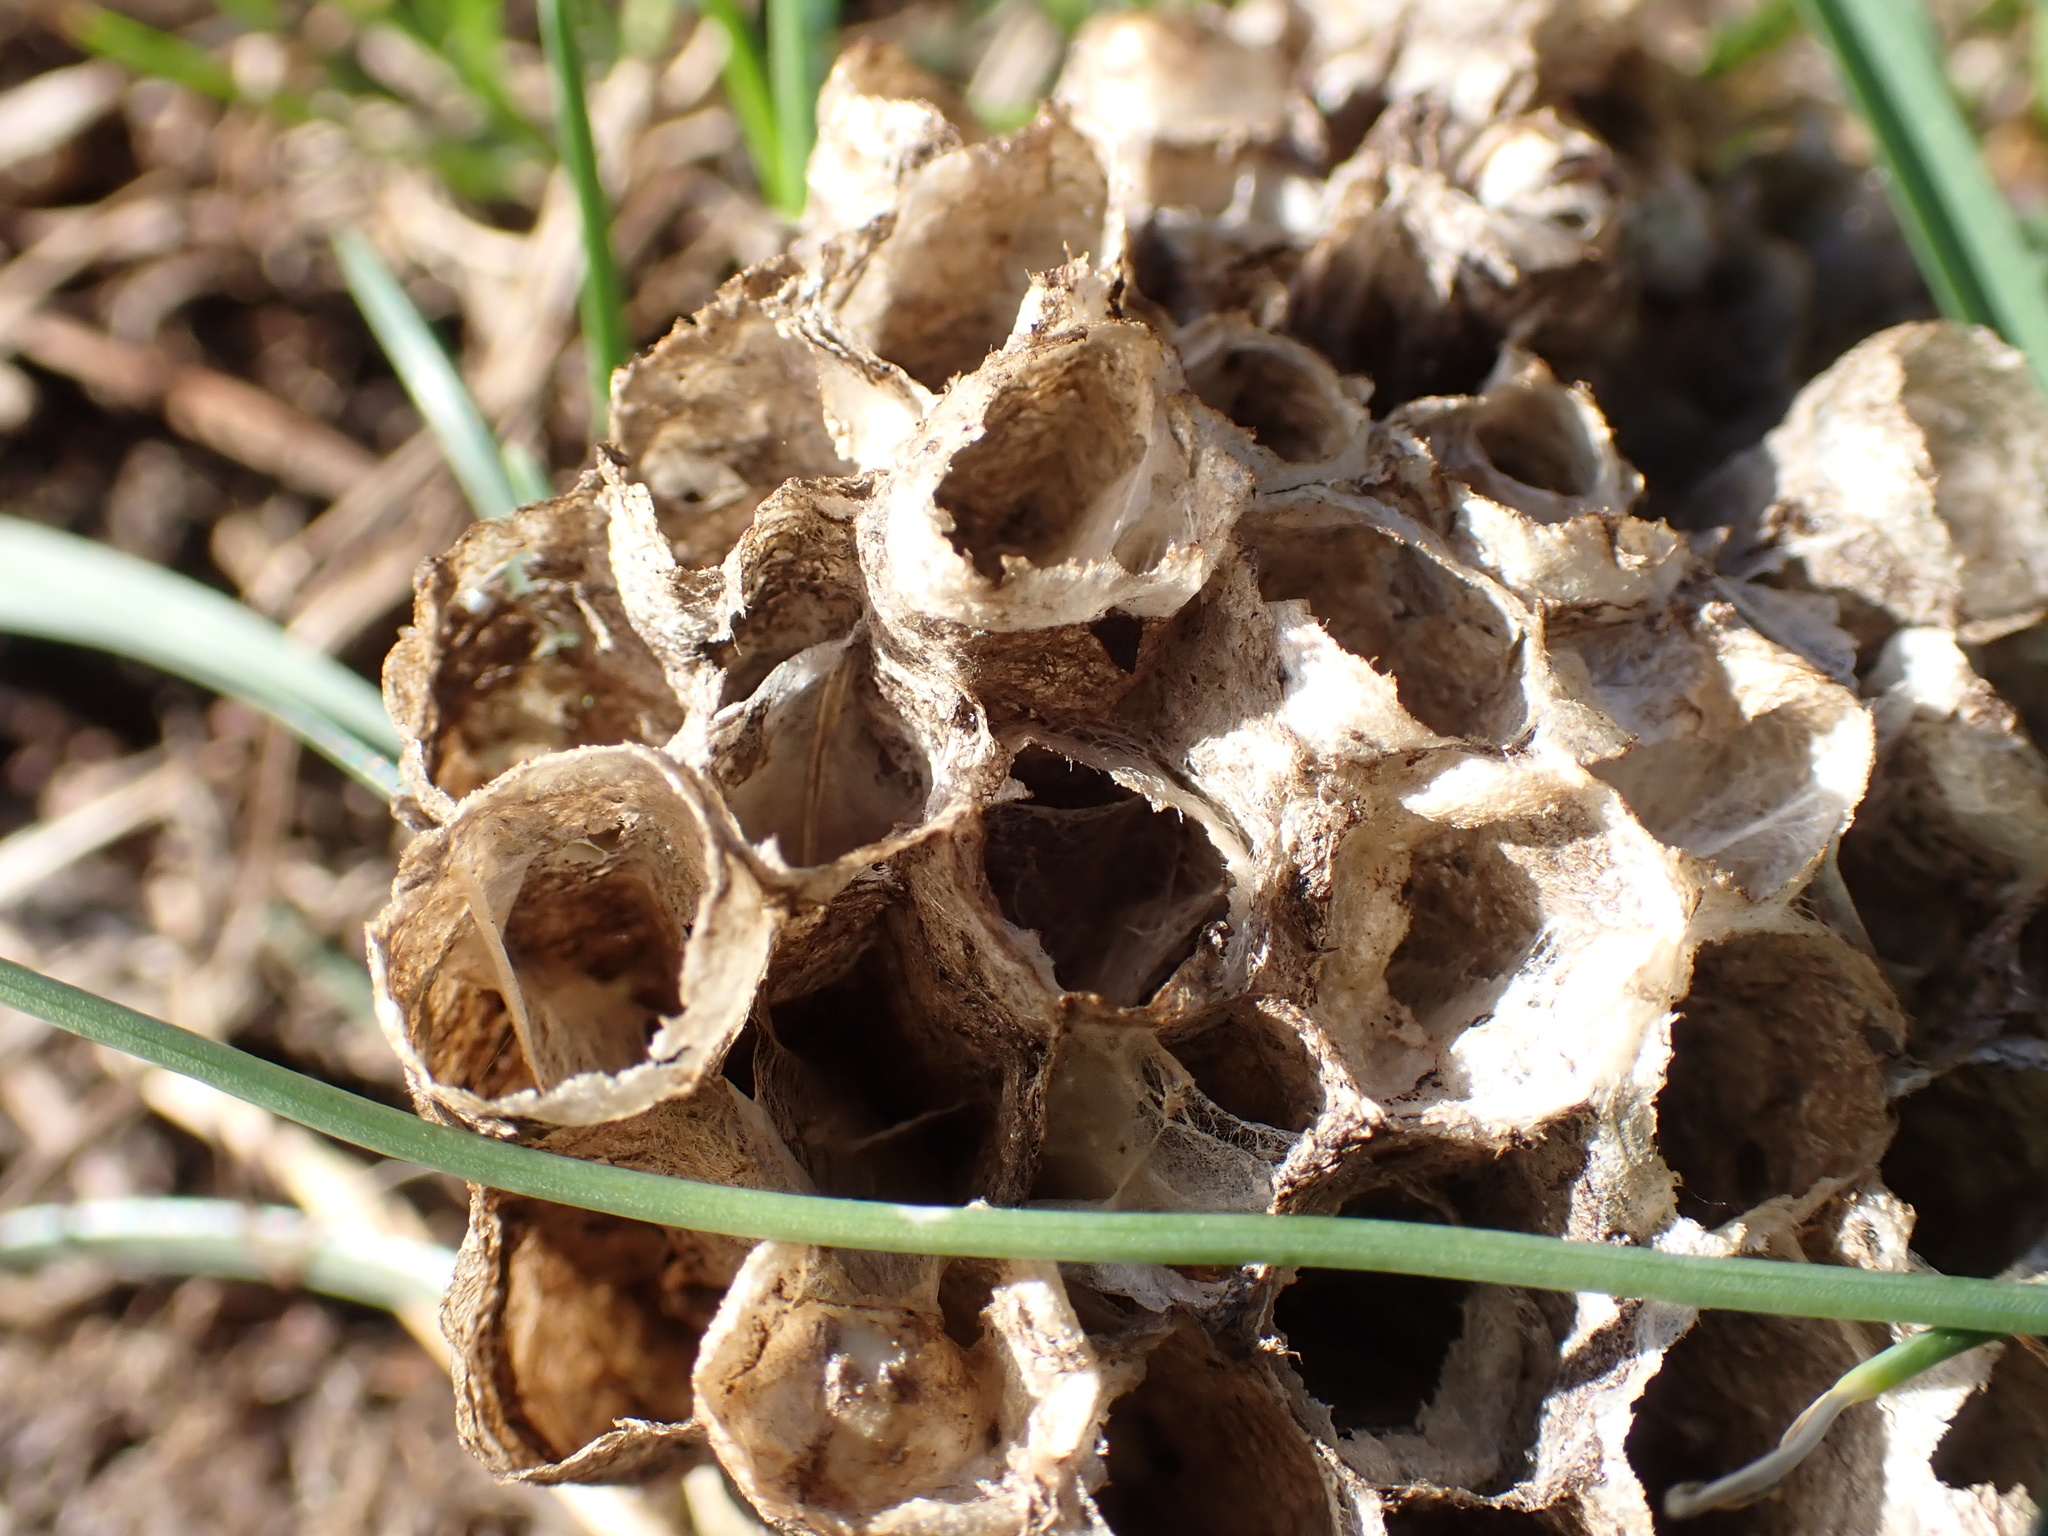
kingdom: Animalia
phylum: Arthropoda
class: Insecta
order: Hymenoptera
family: Eumenidae
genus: Polistes
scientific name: Polistes
